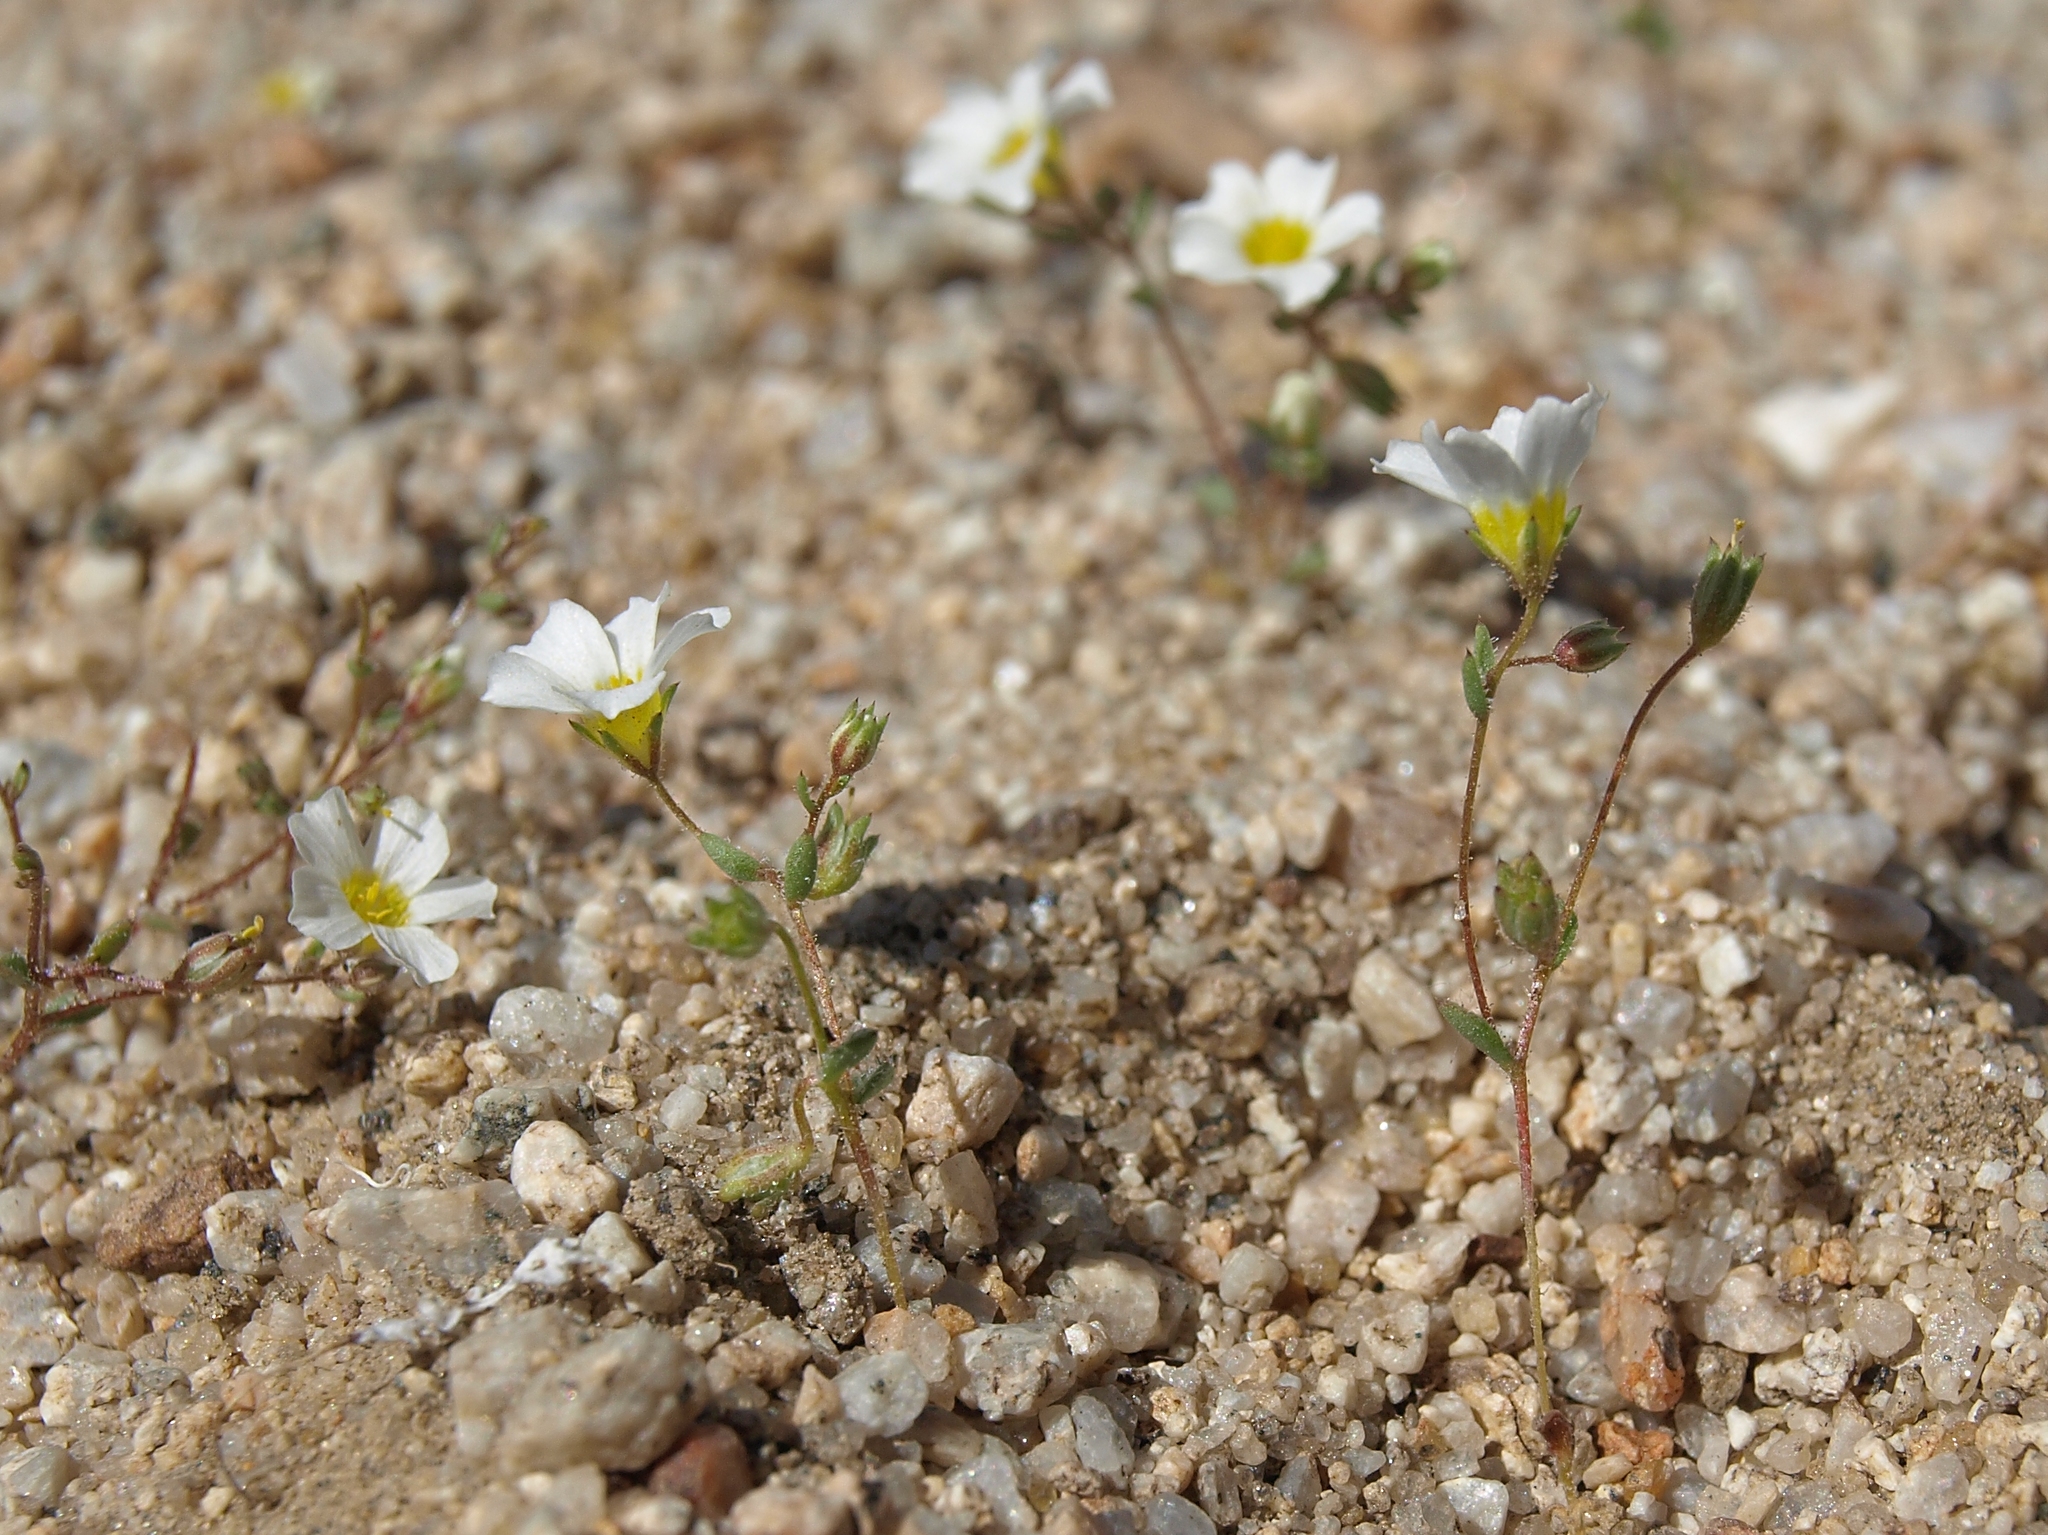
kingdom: Plantae
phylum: Tracheophyta
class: Magnoliopsida
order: Ericales
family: Polemoniaceae
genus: Linanthus
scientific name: Linanthus inyoensis
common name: Inyo gilia
